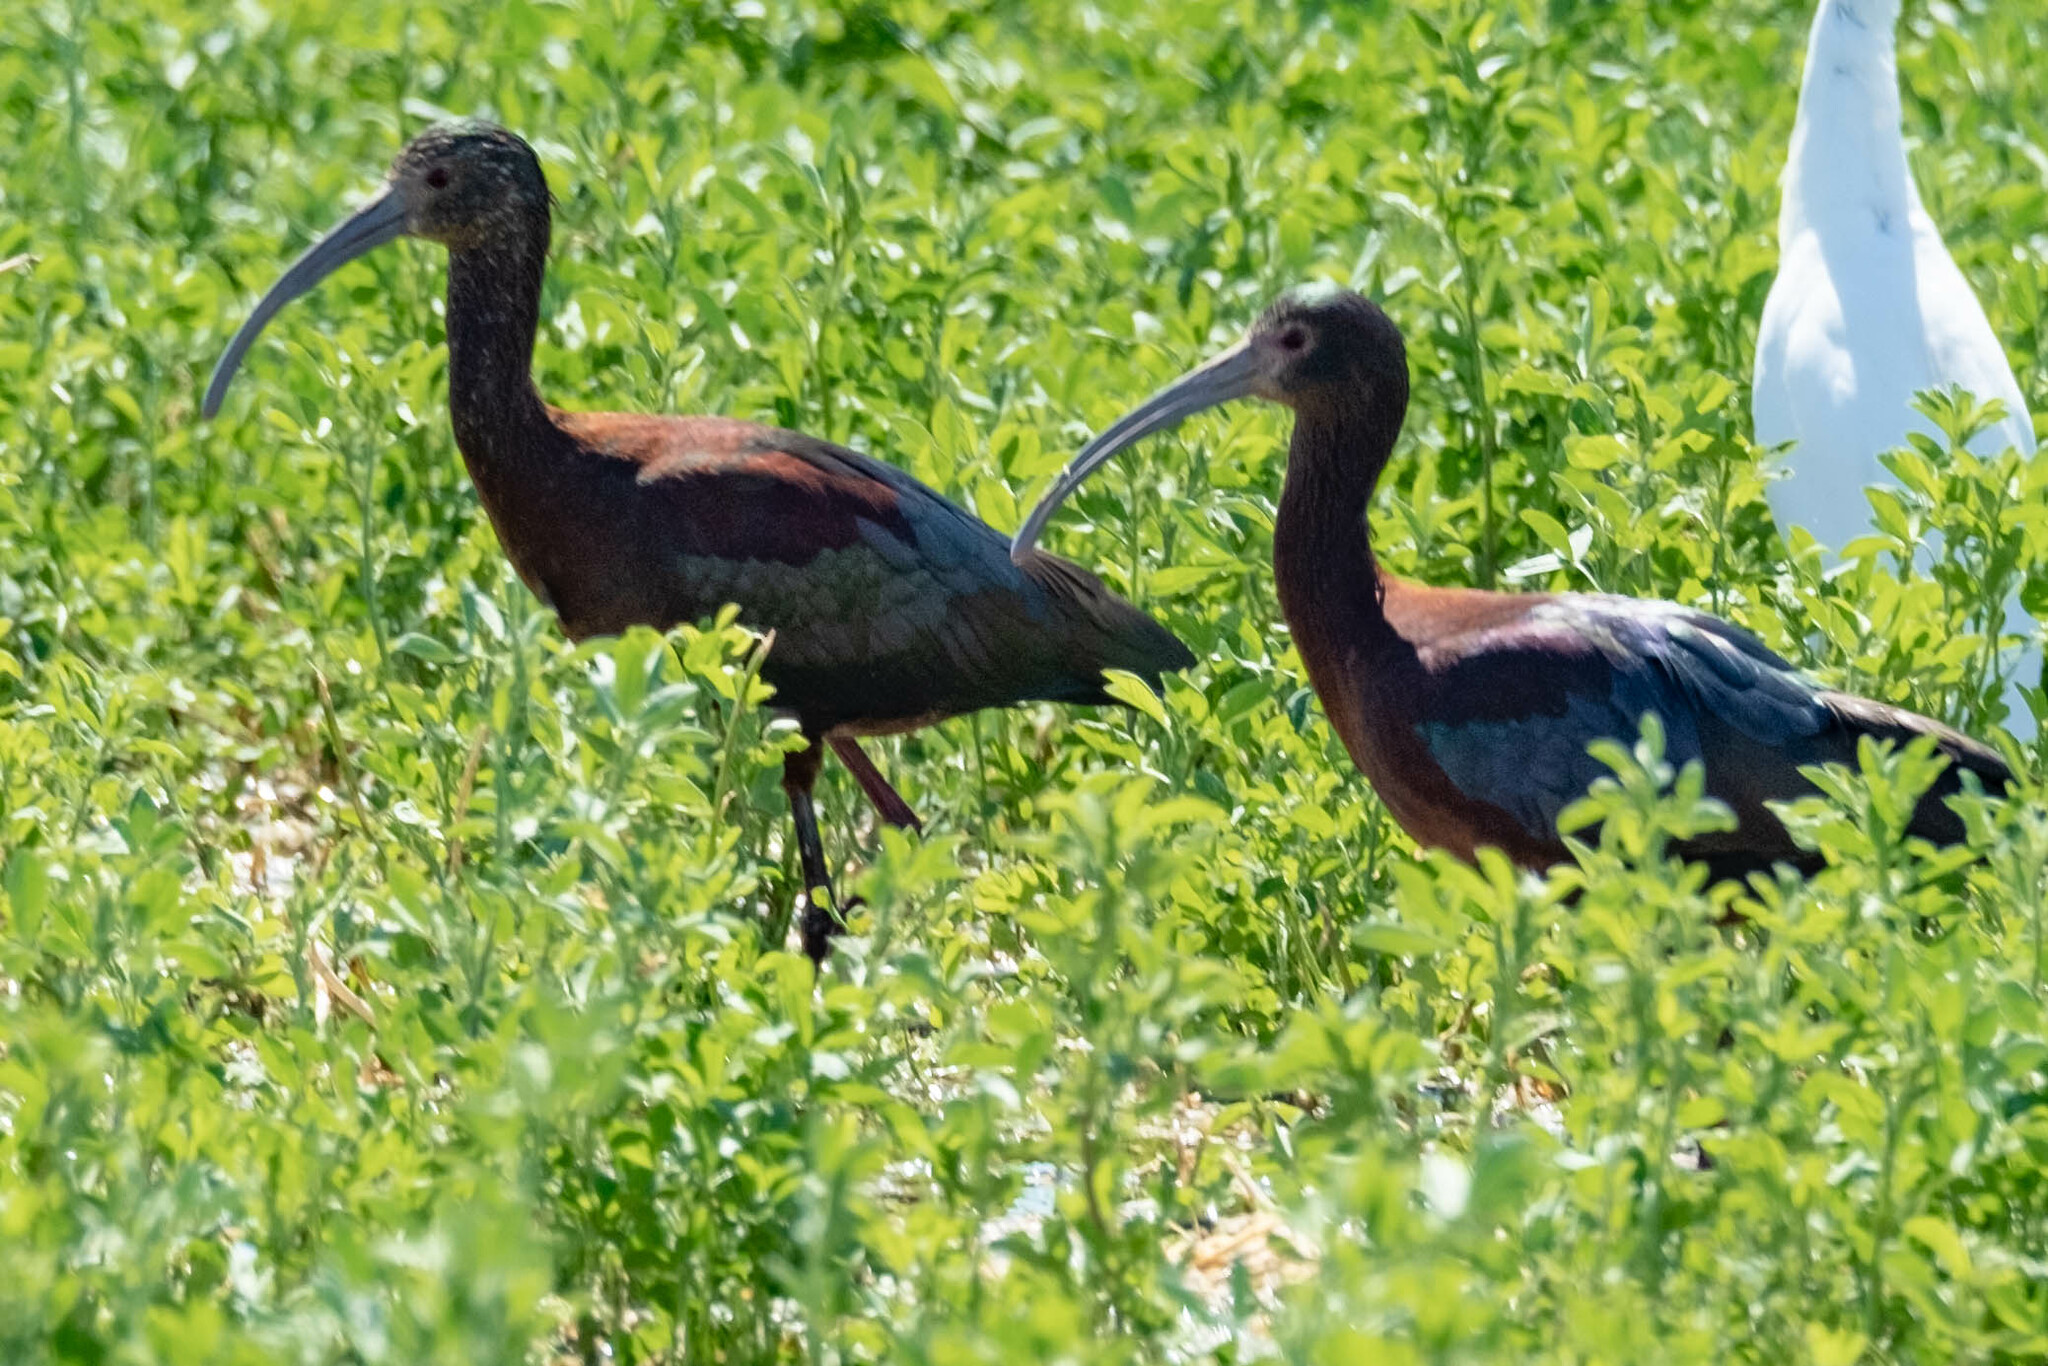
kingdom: Animalia
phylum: Chordata
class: Aves
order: Pelecaniformes
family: Threskiornithidae
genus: Plegadis
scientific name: Plegadis chihi
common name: White-faced ibis
